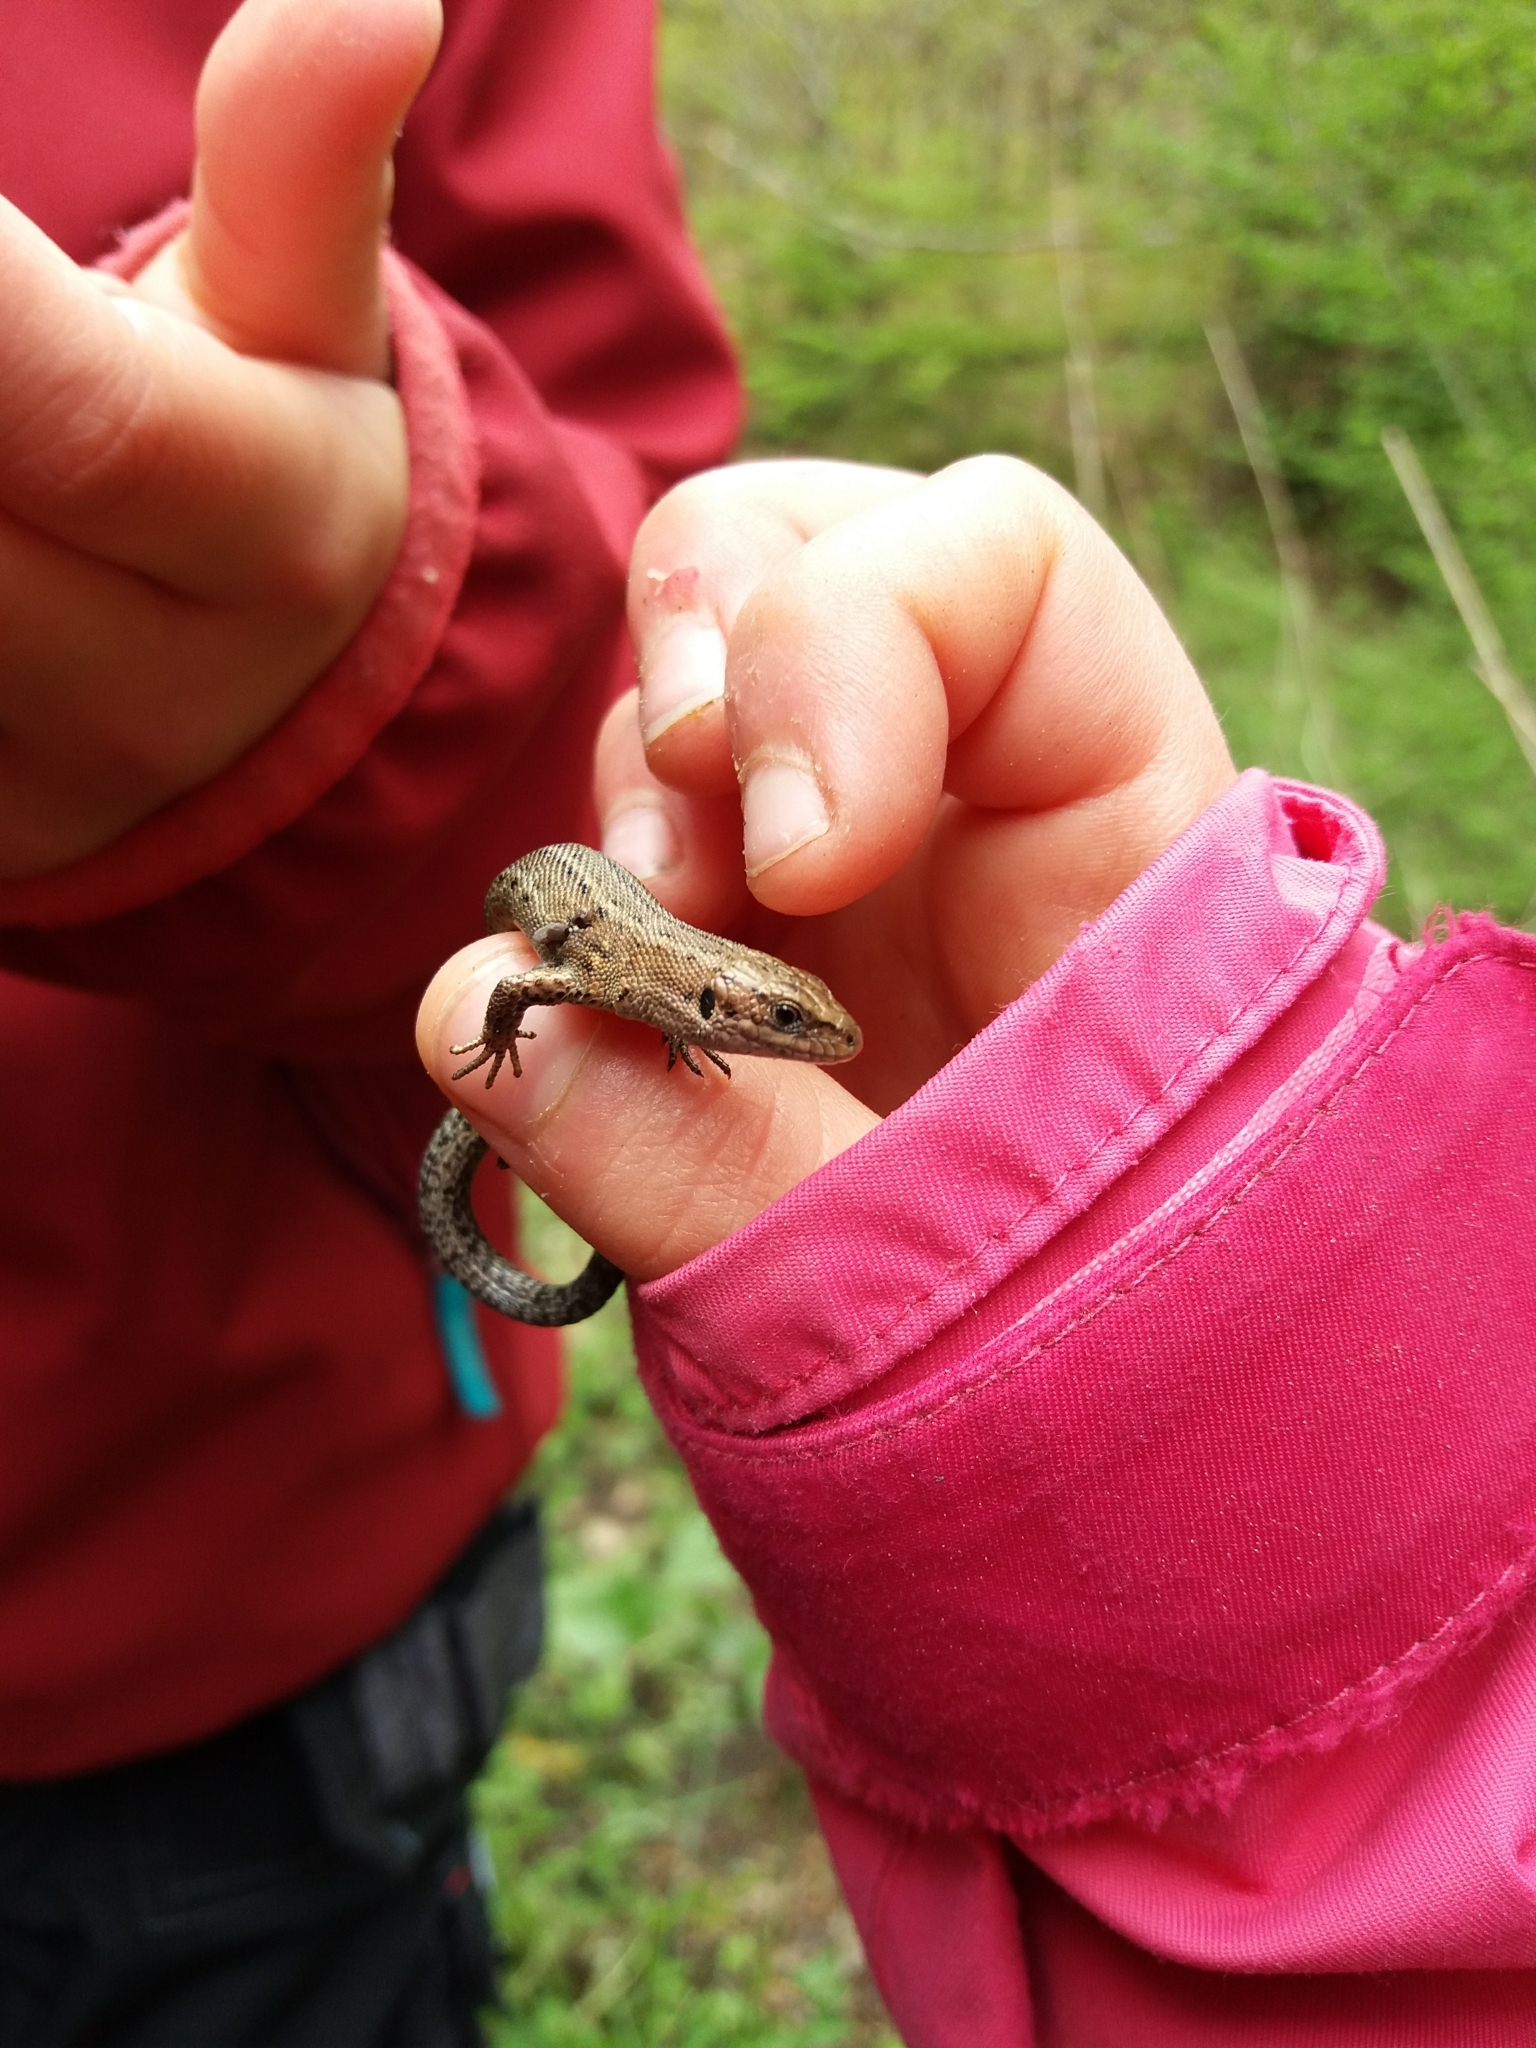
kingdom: Animalia
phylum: Chordata
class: Squamata
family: Lacertidae
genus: Zootoca
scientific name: Zootoca vivipara
